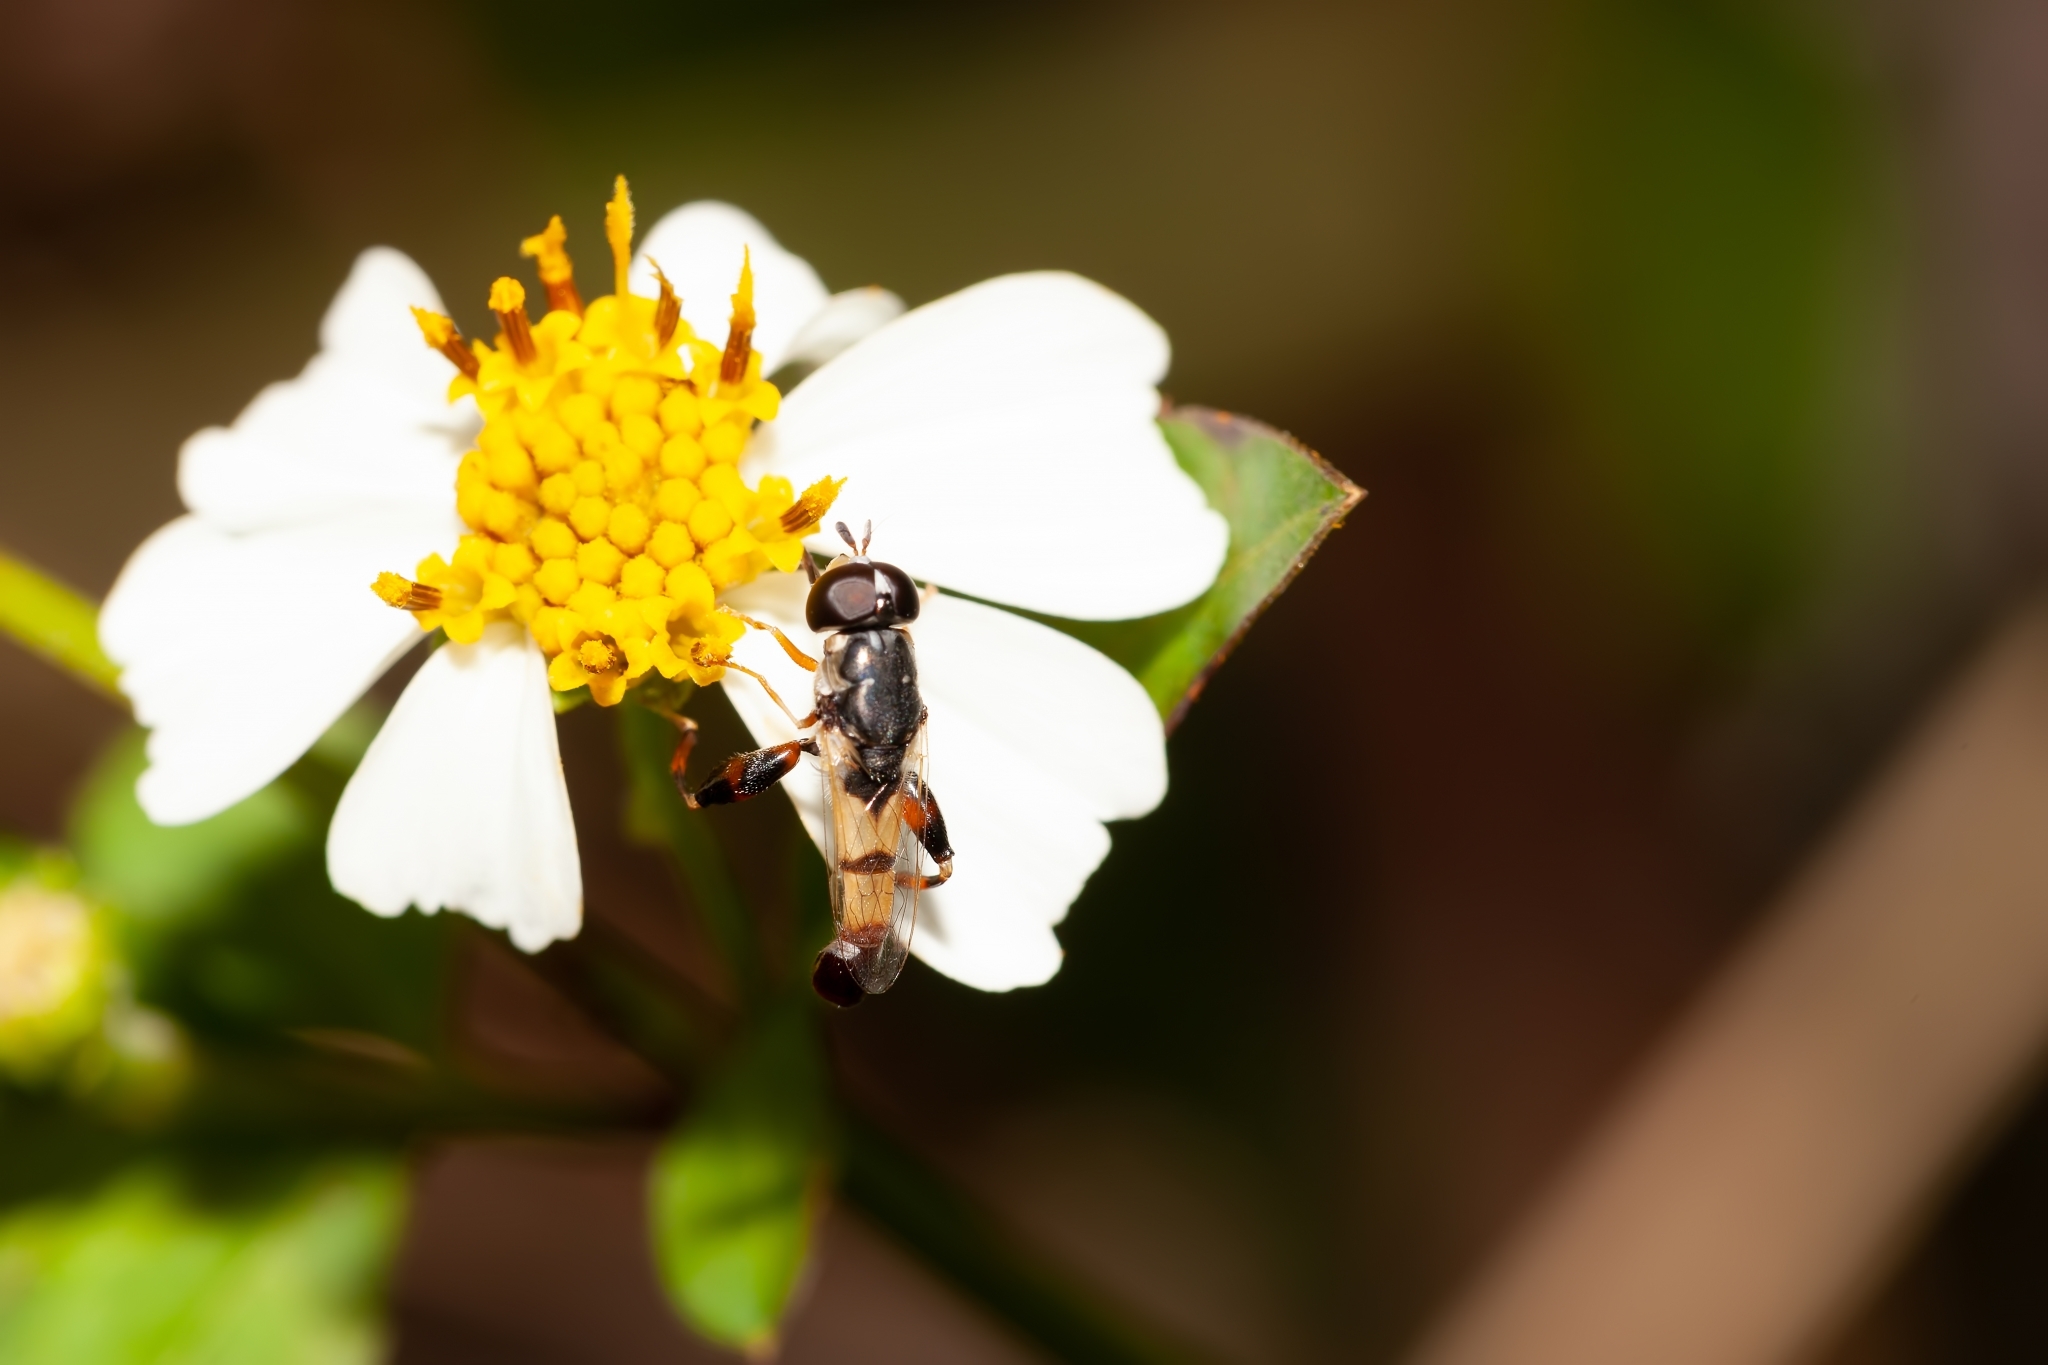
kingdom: Animalia
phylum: Arthropoda
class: Insecta
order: Diptera
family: Syrphidae
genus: Syritta
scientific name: Syritta flaviventris
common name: Syrphid fly
